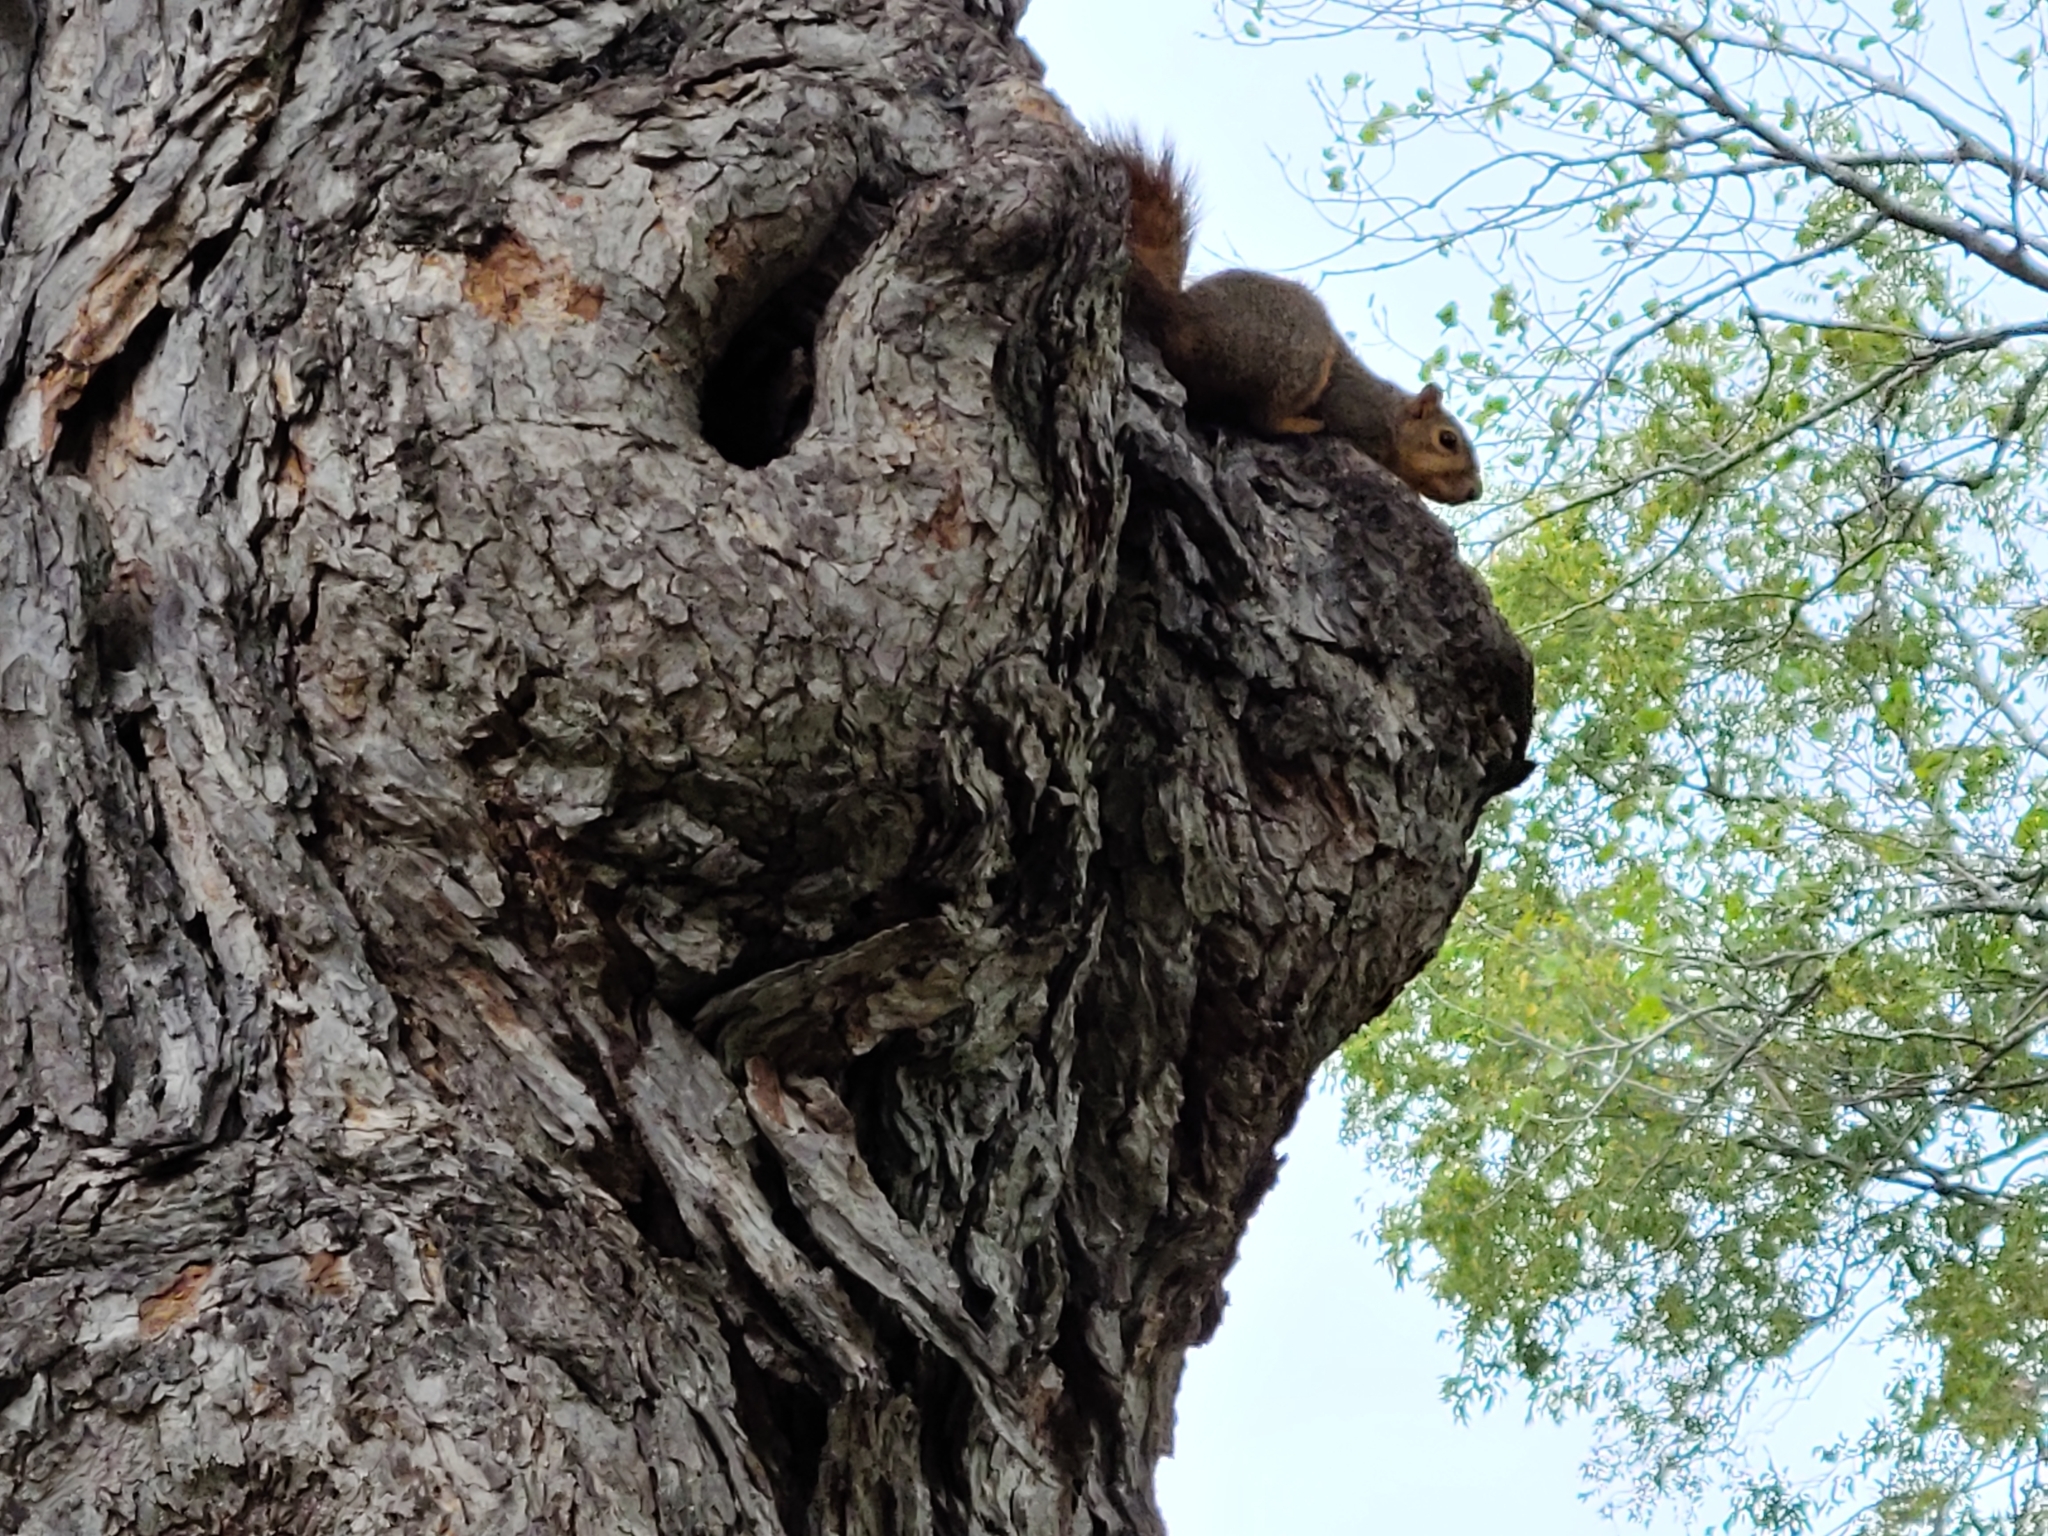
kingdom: Animalia
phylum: Chordata
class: Mammalia
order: Rodentia
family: Sciuridae
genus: Sciurus
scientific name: Sciurus niger
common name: Fox squirrel
